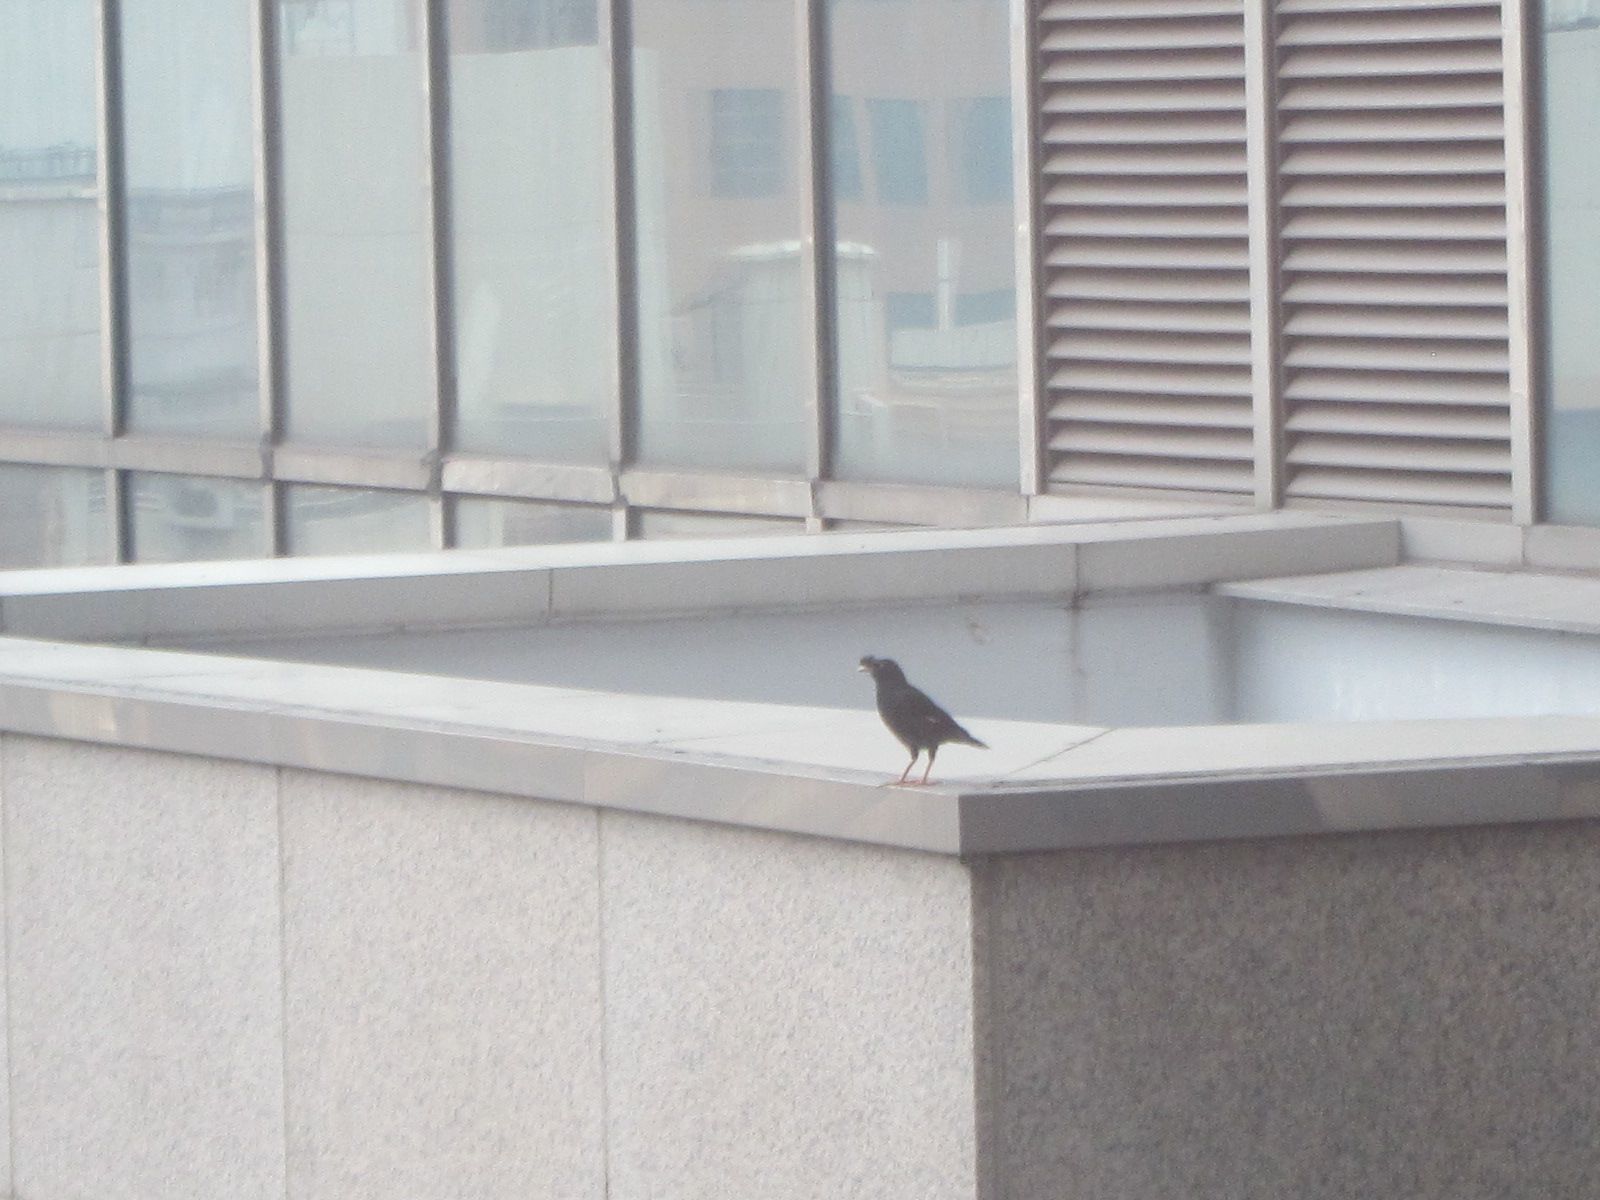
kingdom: Animalia
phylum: Chordata
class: Aves
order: Passeriformes
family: Sturnidae
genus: Acridotheres
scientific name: Acridotheres cristatellus
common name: Crested myna
